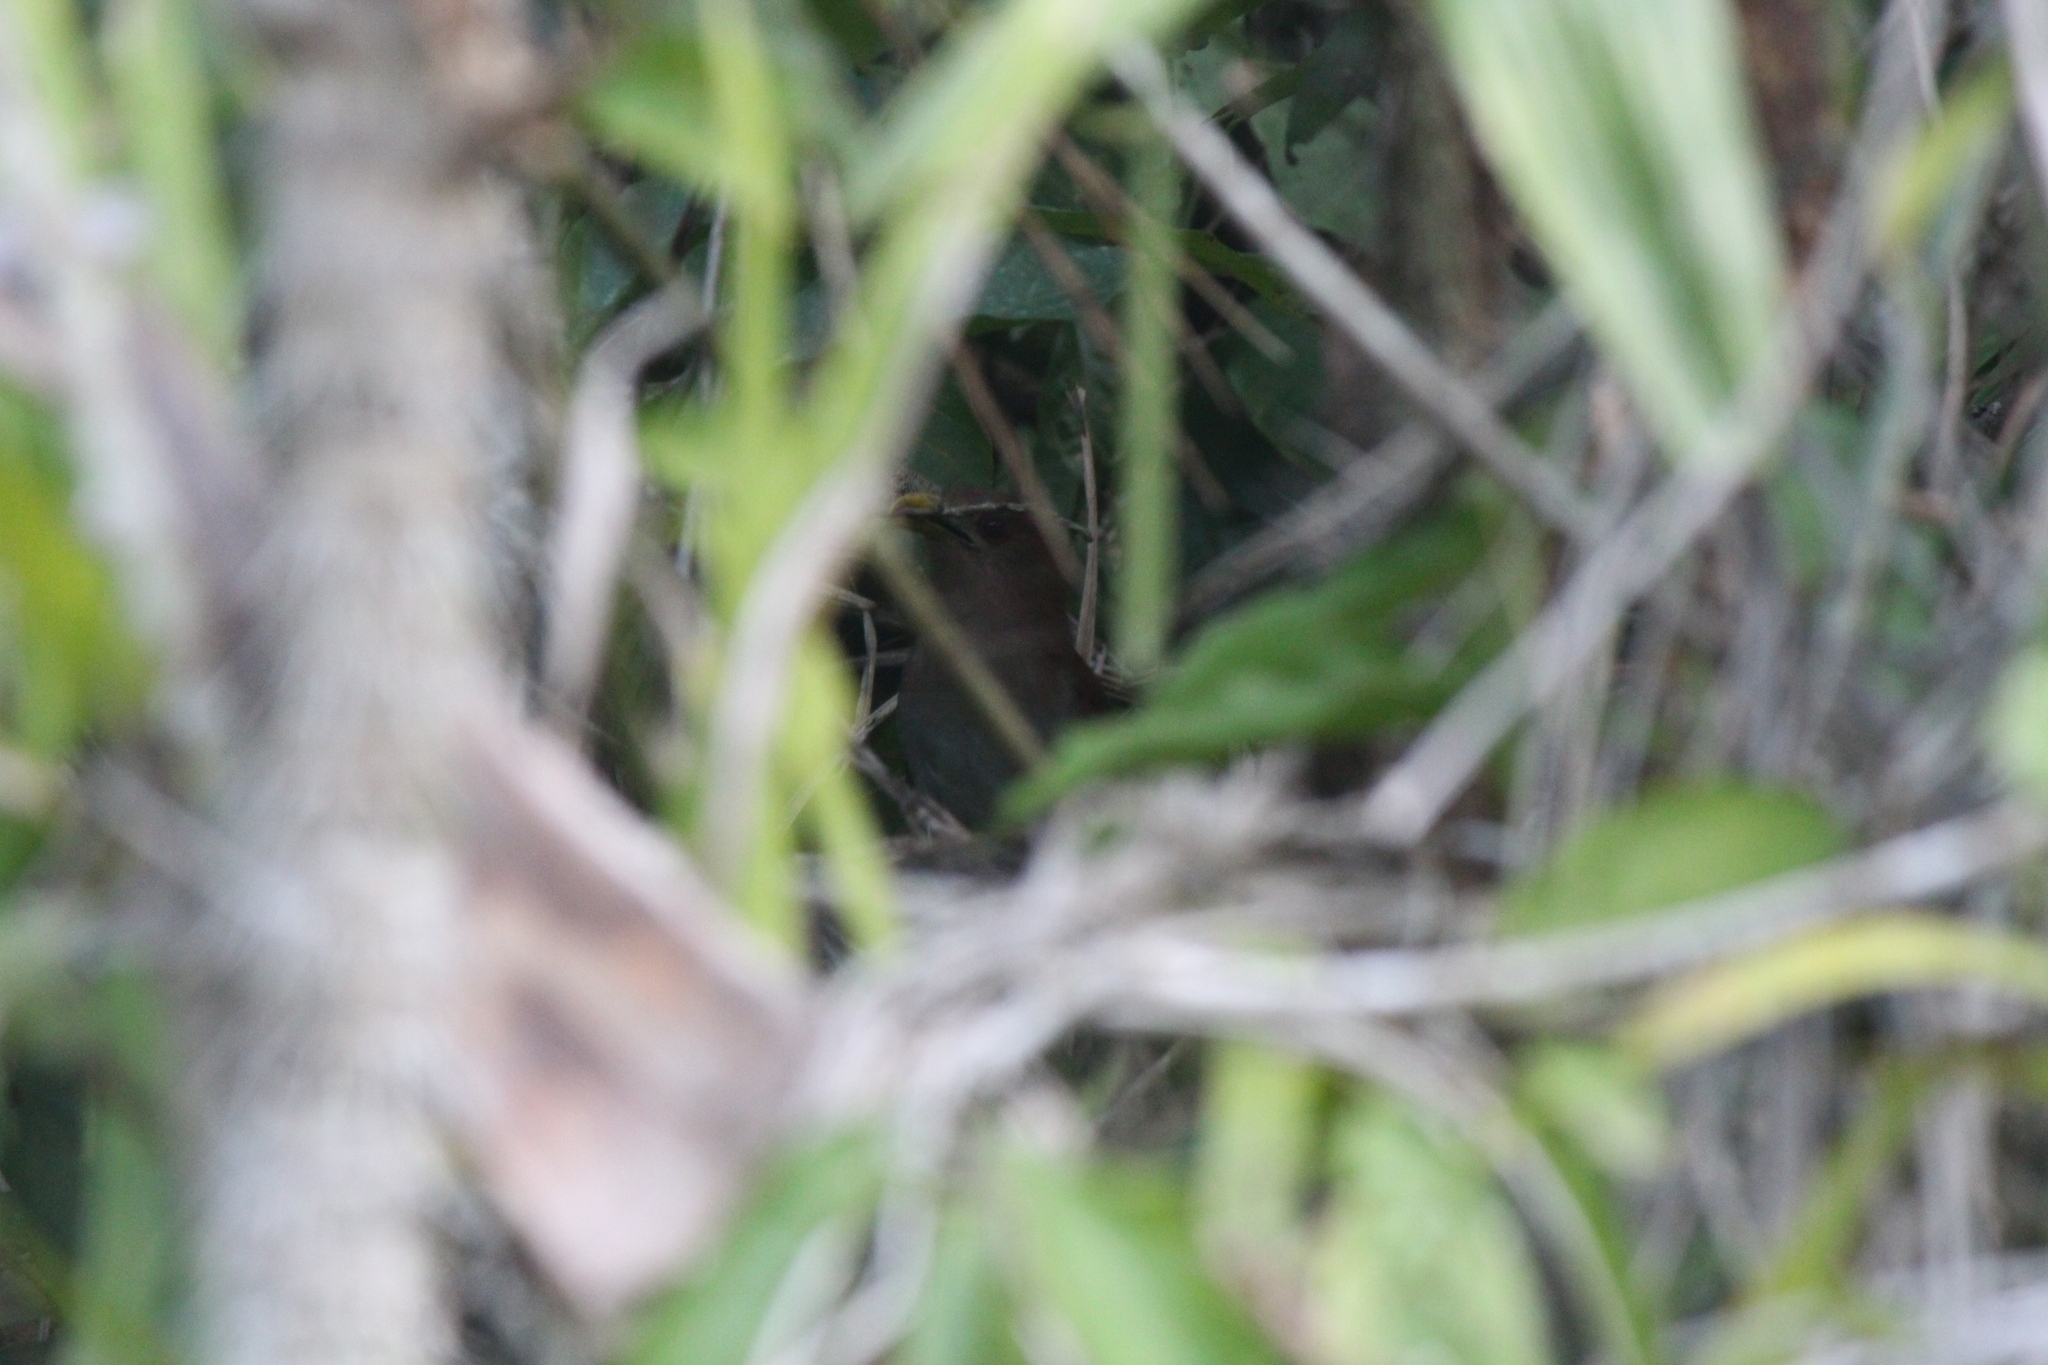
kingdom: Animalia
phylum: Chordata
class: Aves
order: Cuculiformes
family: Cuculidae
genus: Piaya
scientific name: Piaya cayana
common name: Squirrel cuckoo
